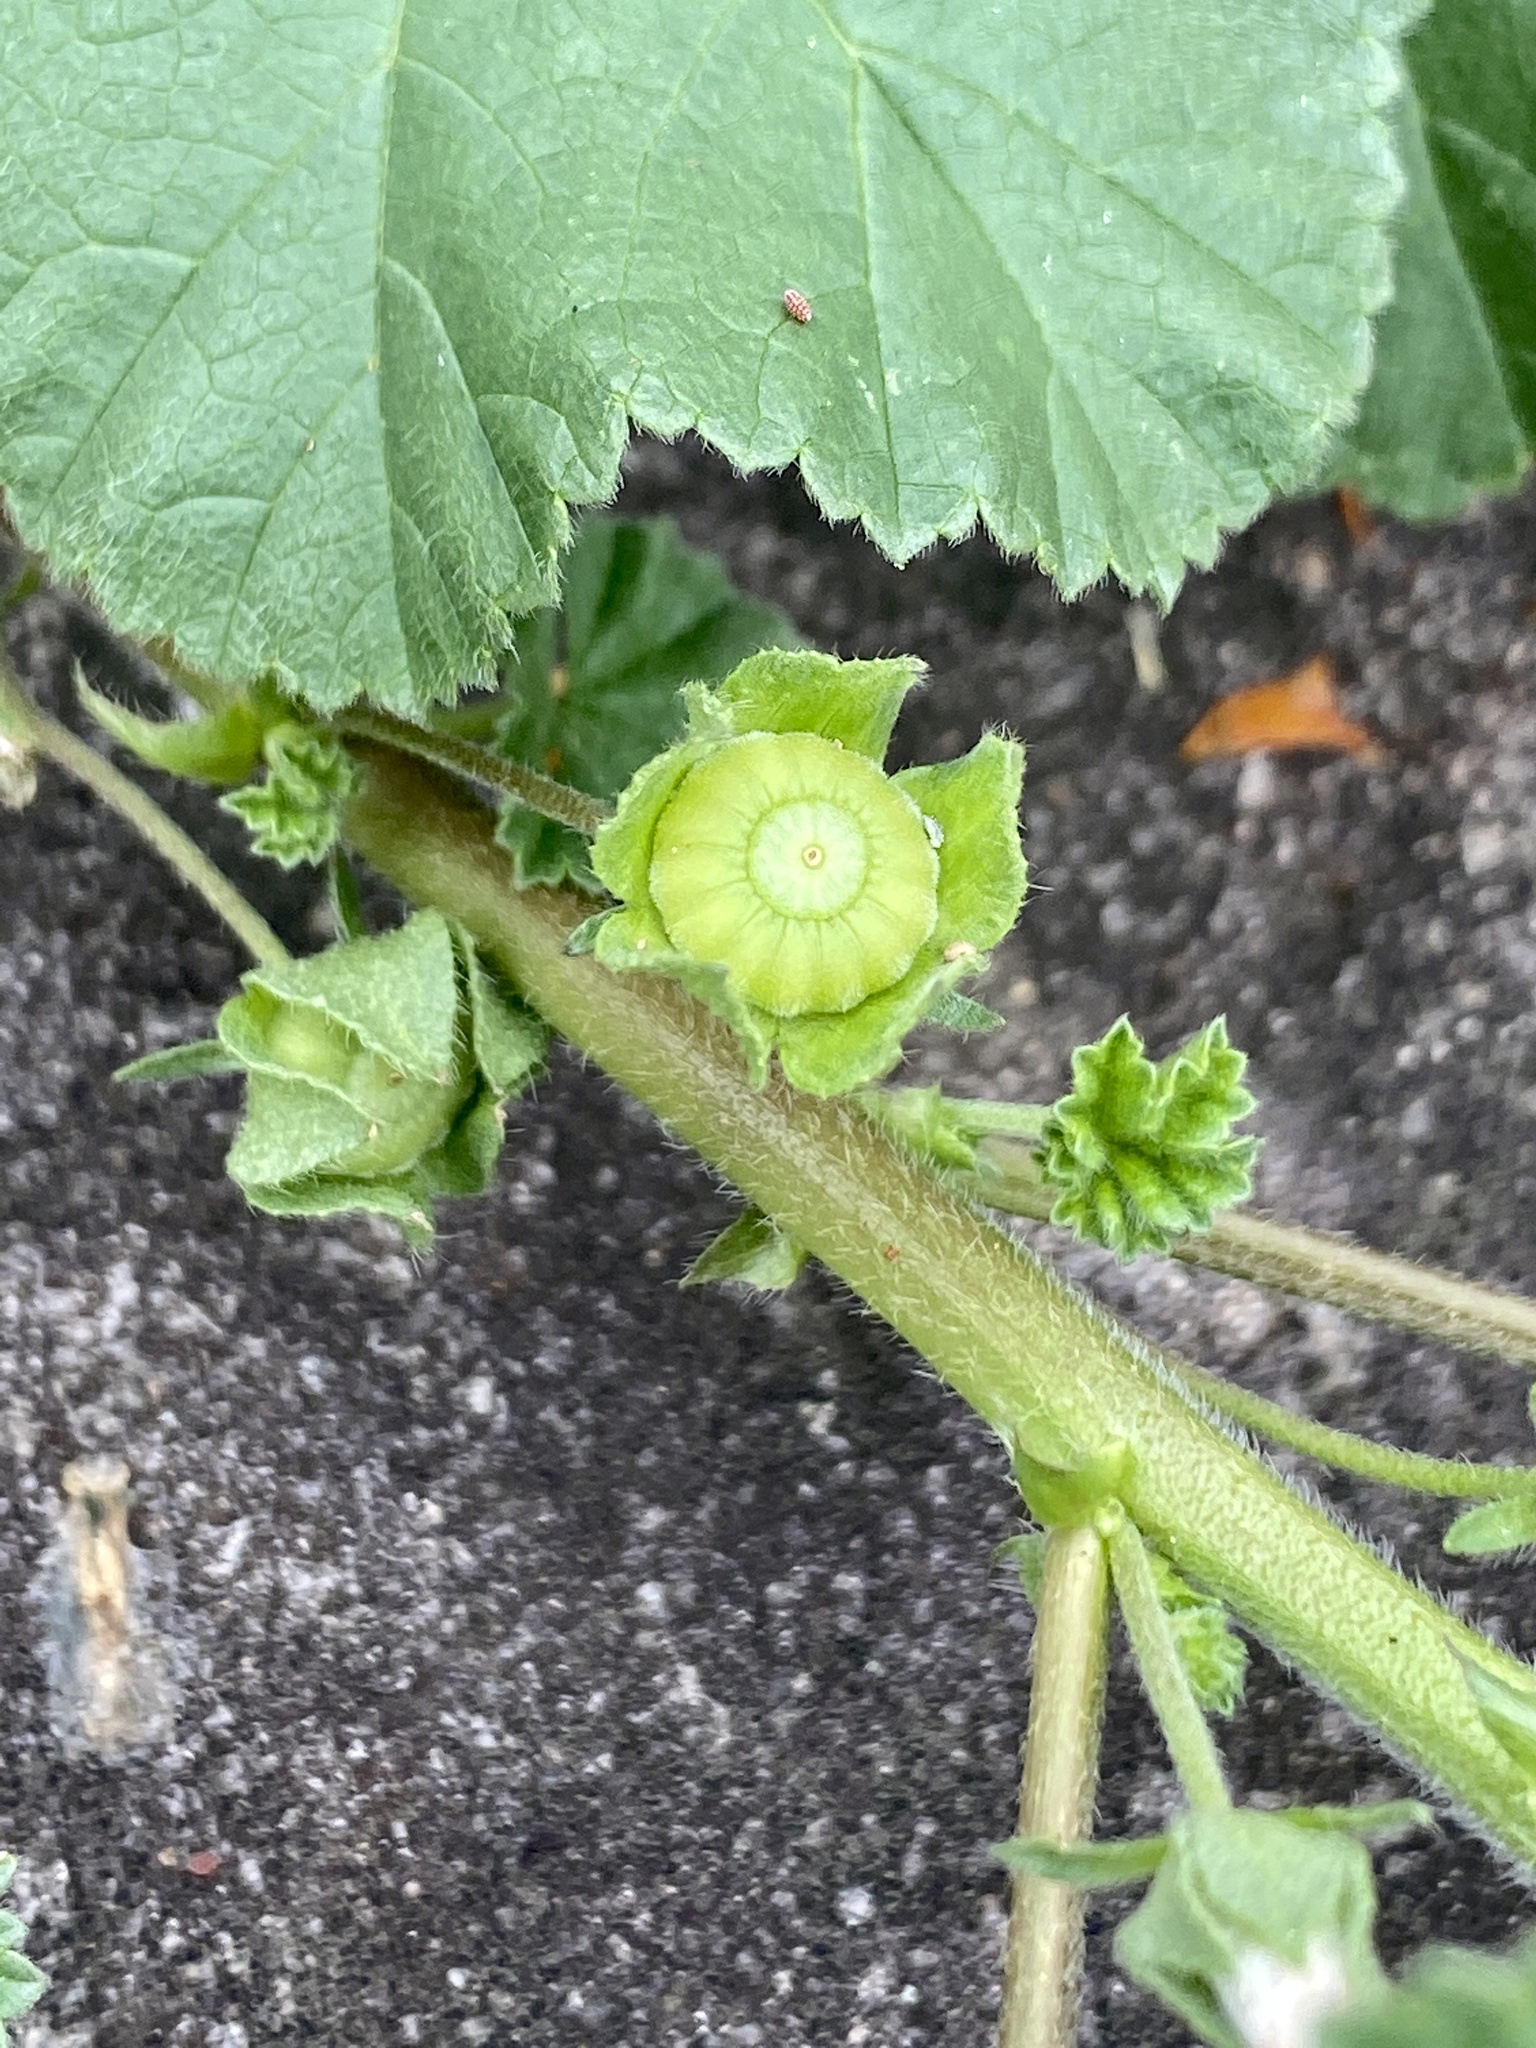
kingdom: Plantae
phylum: Tracheophyta
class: Magnoliopsida
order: Malvales
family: Malvaceae
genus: Malva
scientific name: Malva neglecta
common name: Common mallow
